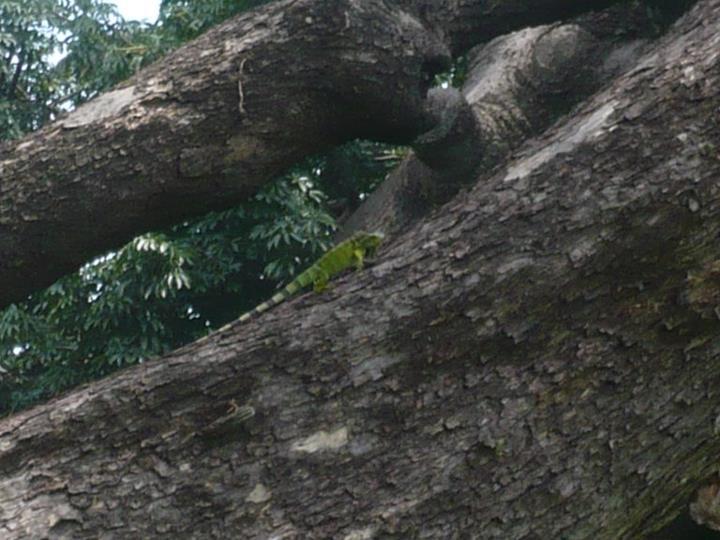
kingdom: Animalia
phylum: Chordata
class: Squamata
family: Iguanidae
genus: Iguana
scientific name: Iguana iguana
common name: Green iguana
